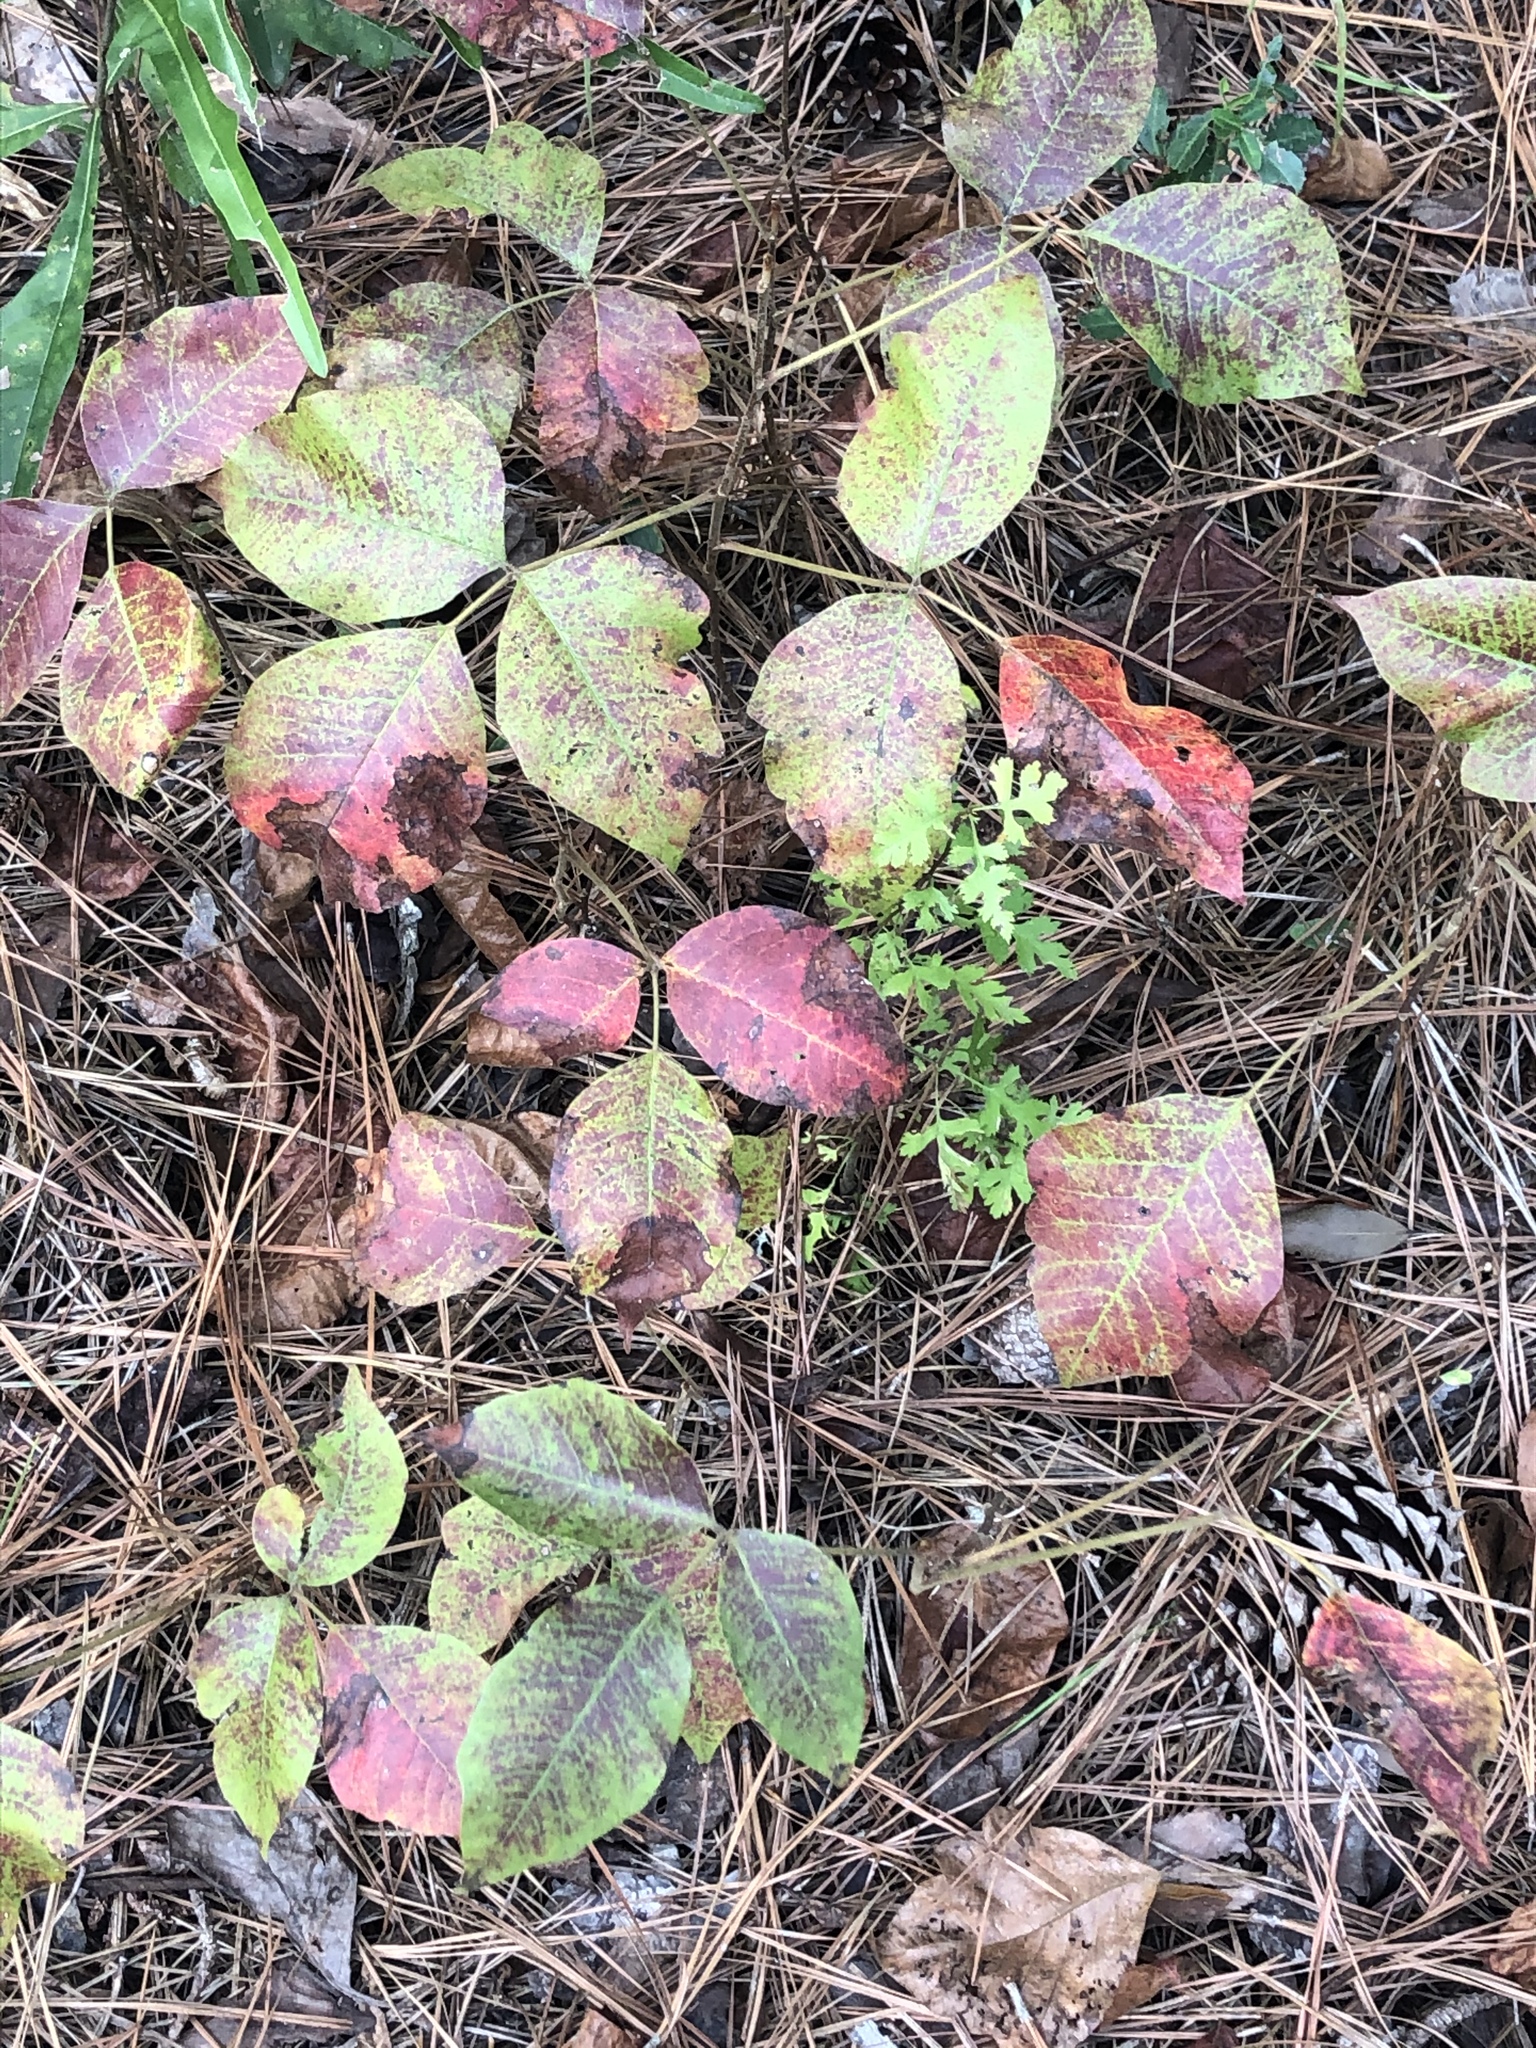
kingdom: Plantae
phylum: Tracheophyta
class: Magnoliopsida
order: Sapindales
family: Anacardiaceae
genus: Toxicodendron
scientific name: Toxicodendron pubescens
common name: Eastern poison-oak
